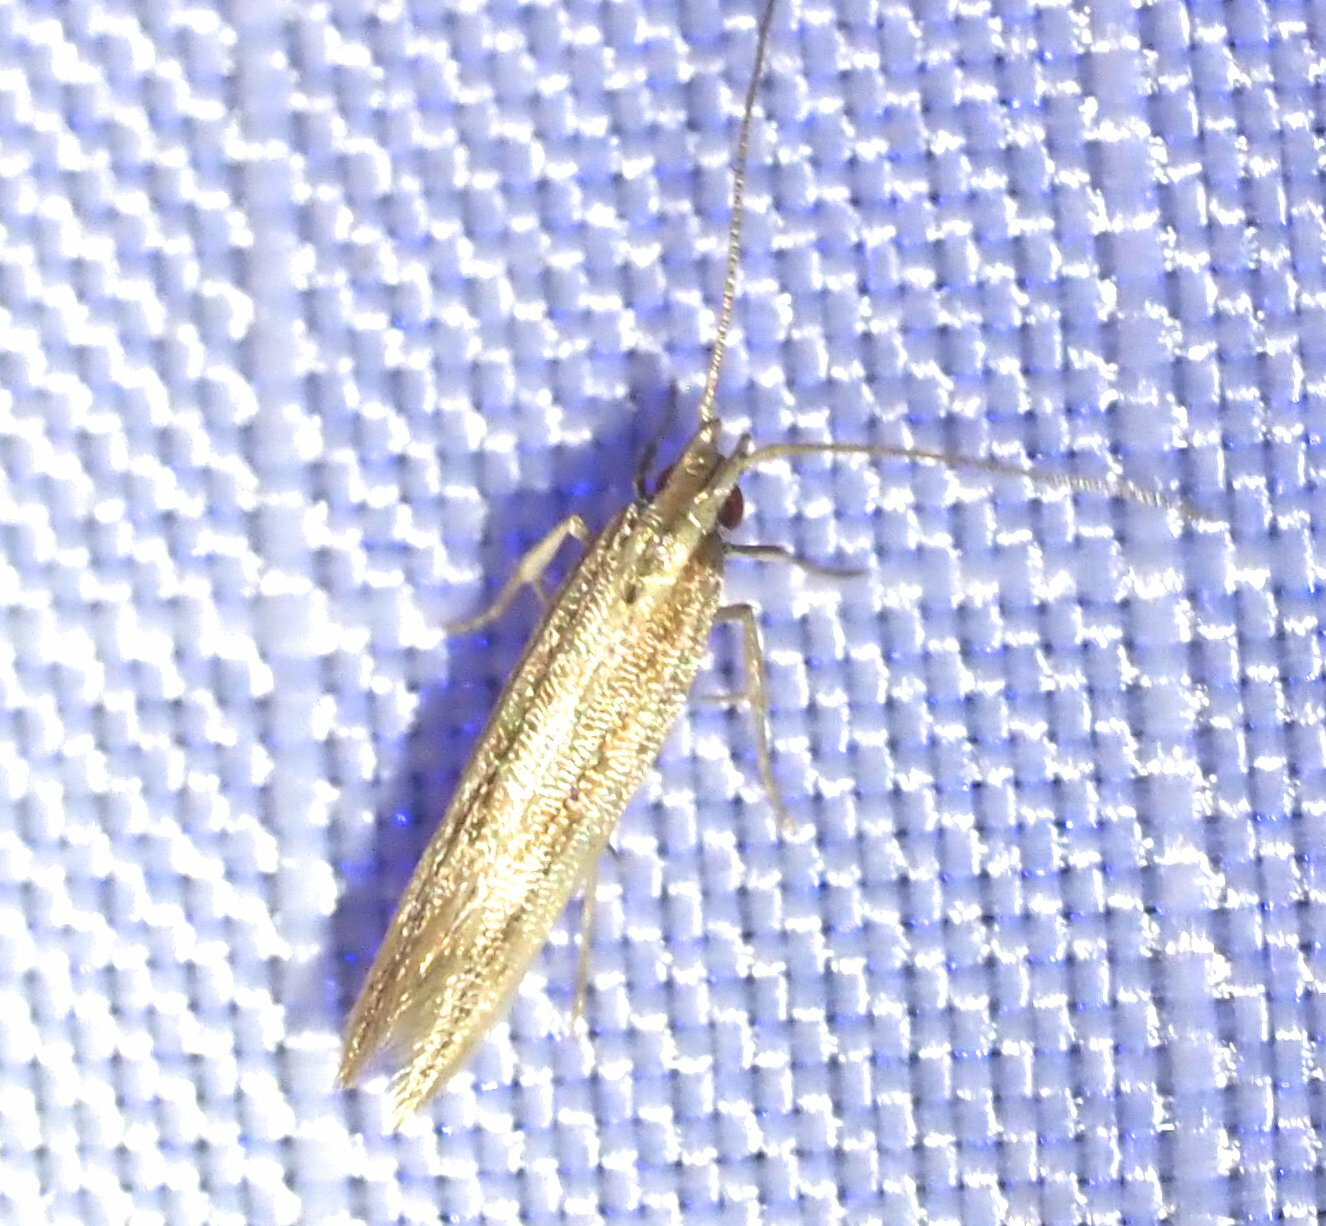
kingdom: Animalia
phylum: Arthropoda
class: Insecta
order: Lepidoptera
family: Cosmopterigidae
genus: Asymphorodes
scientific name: Asymphorodes
